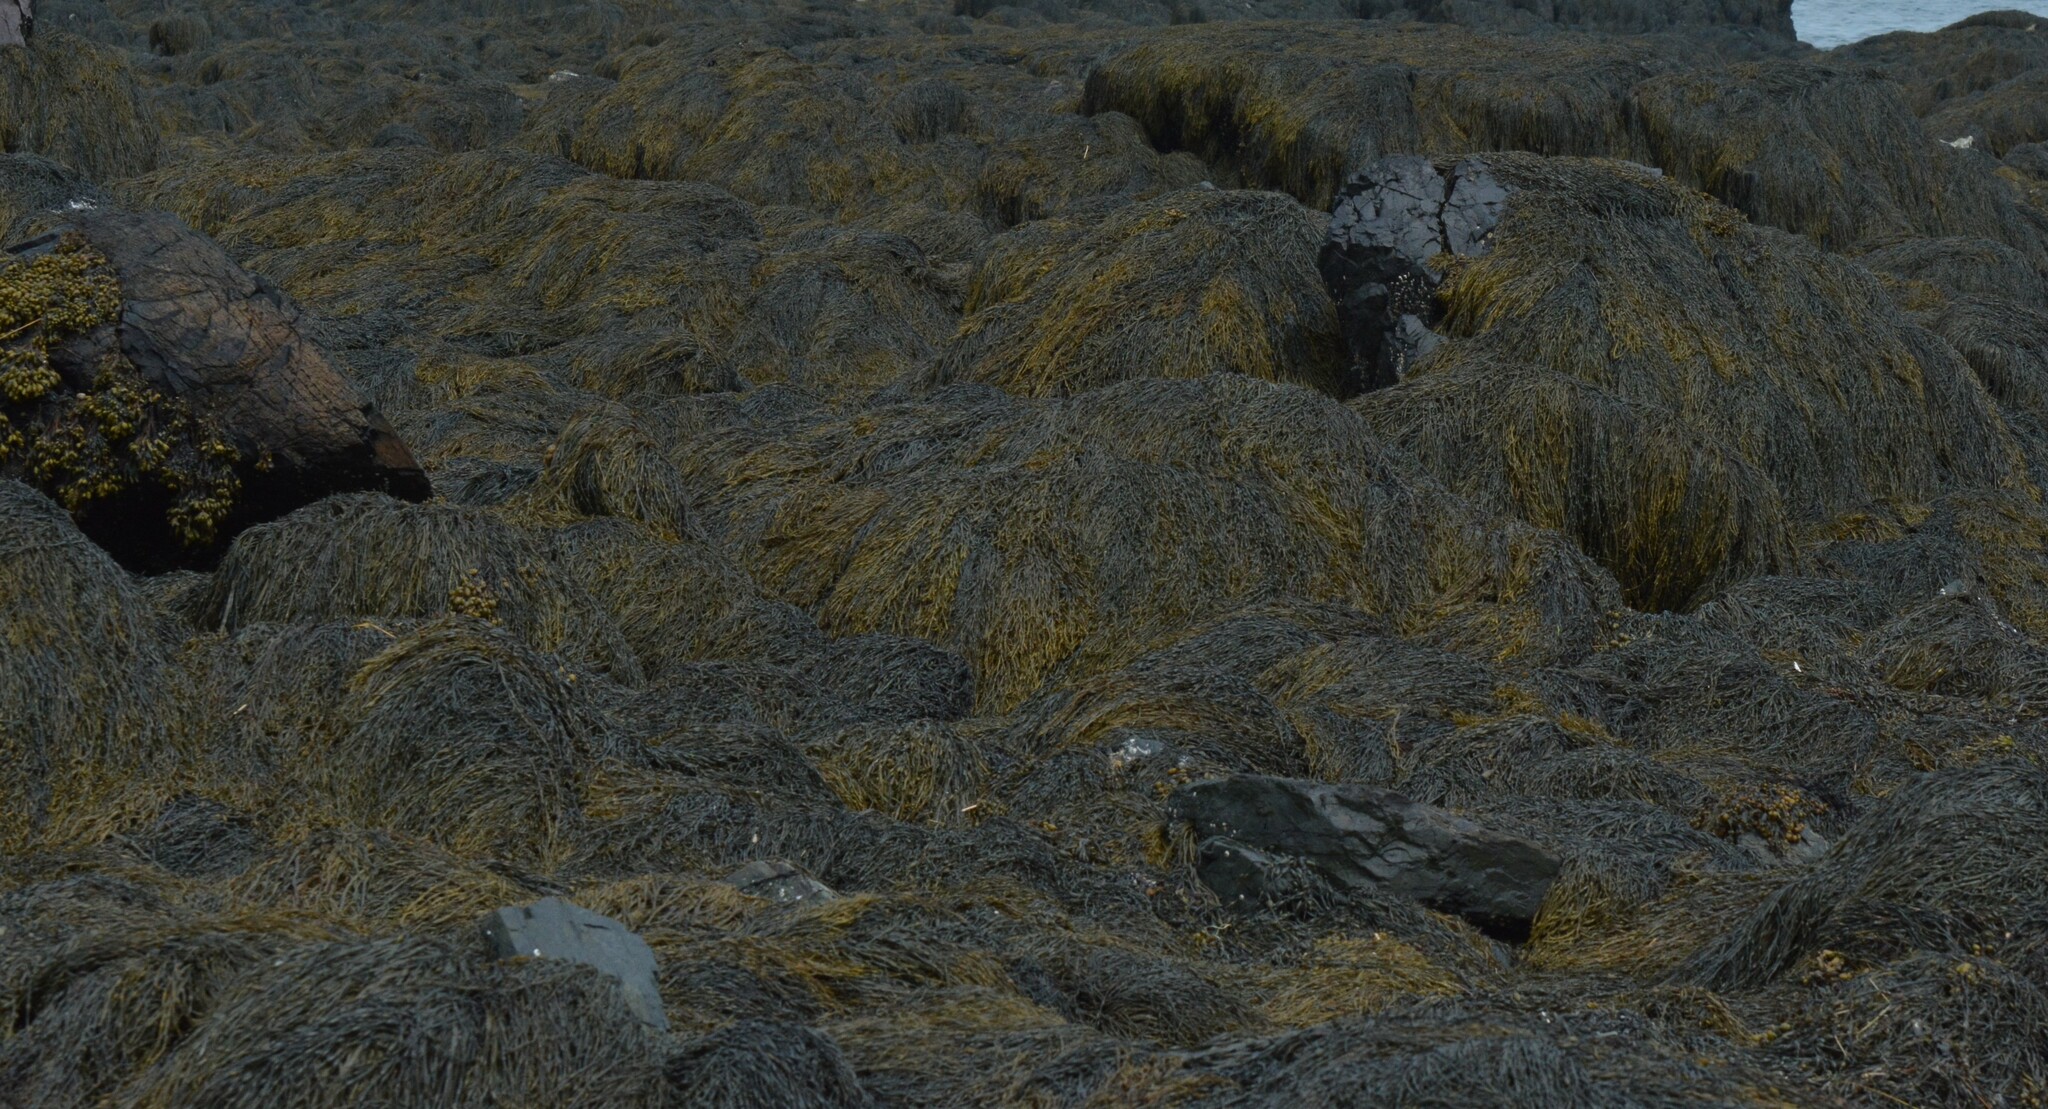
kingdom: Chromista
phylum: Ochrophyta
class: Phaeophyceae
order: Fucales
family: Fucaceae
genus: Ascophyllum
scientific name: Ascophyllum nodosum
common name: Knotted wrack
